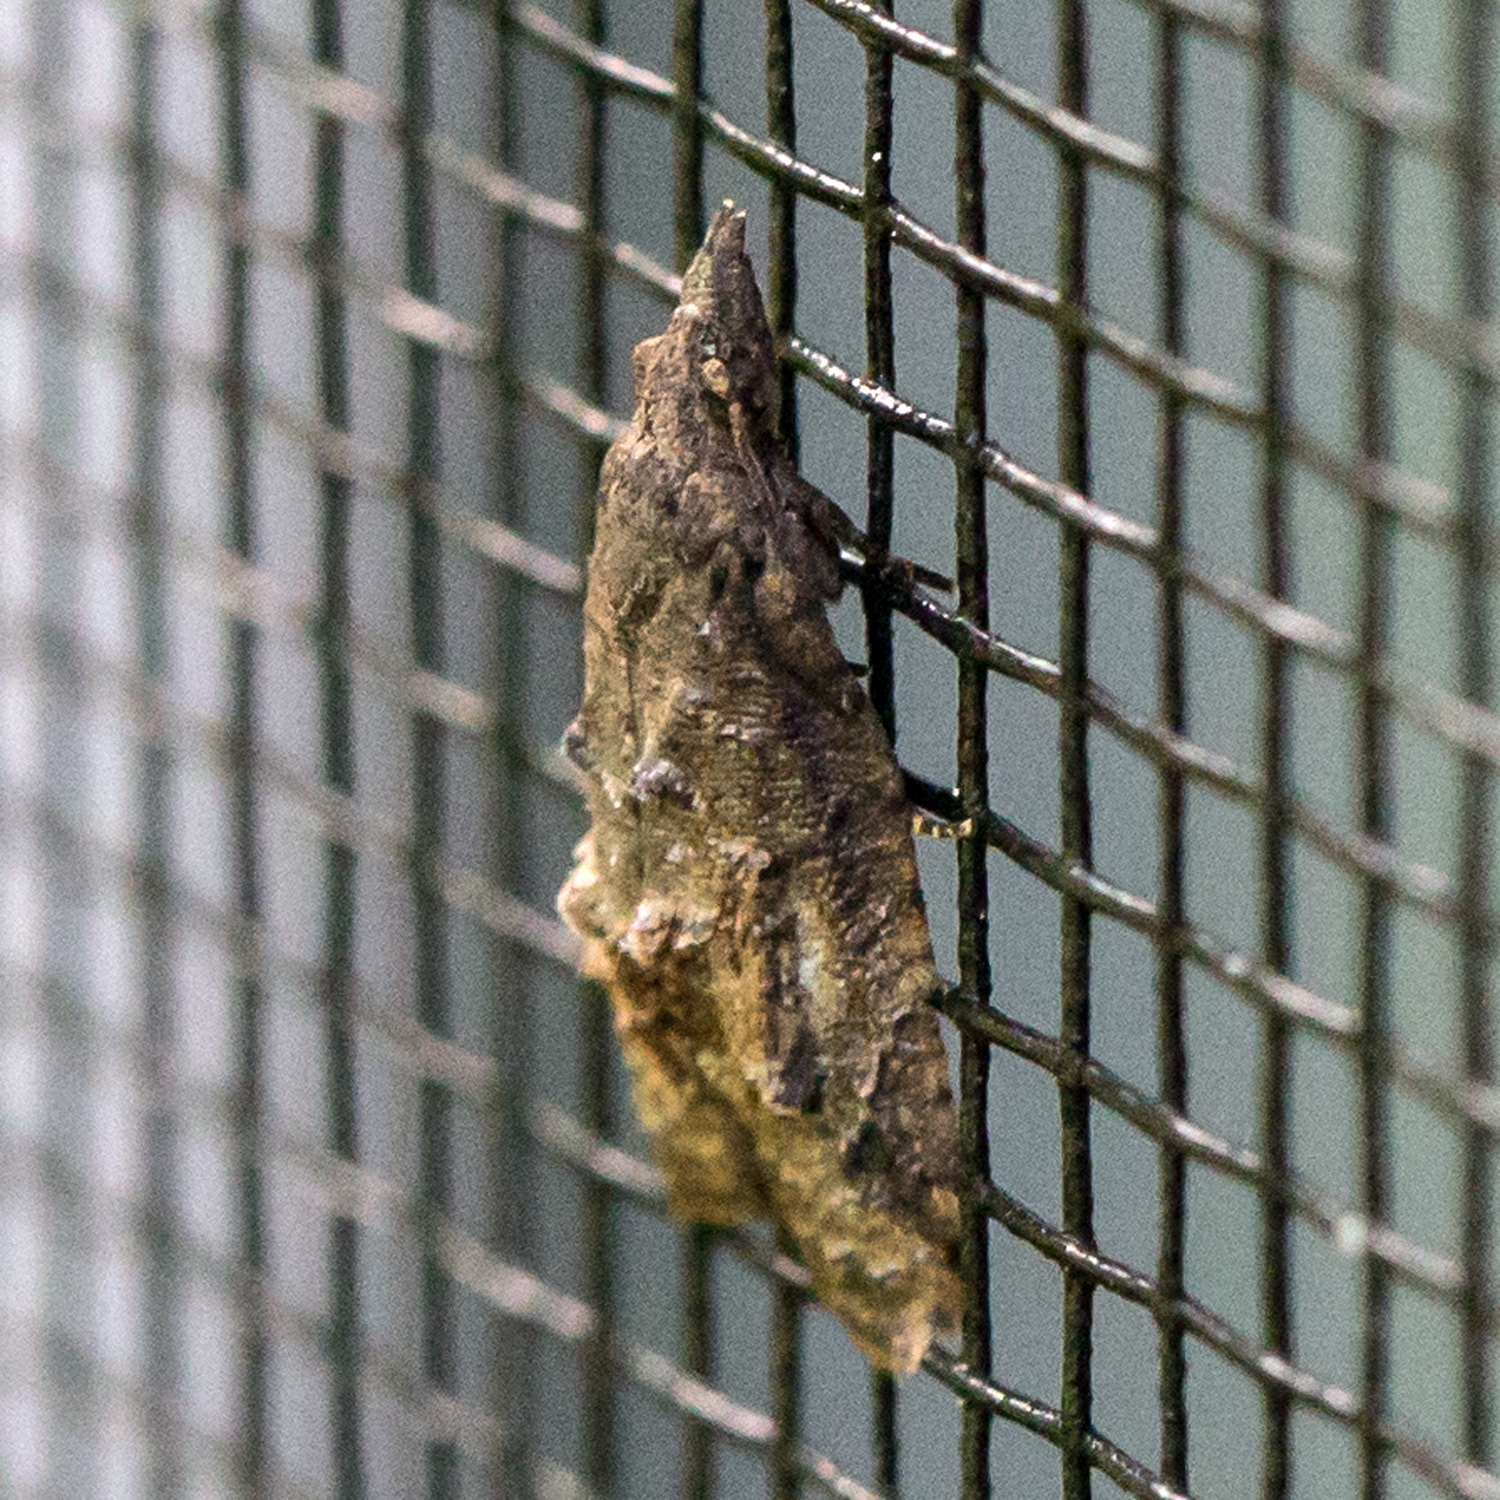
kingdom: Animalia
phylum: Arthropoda
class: Insecta
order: Lepidoptera
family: Tortricidae
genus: Platynota
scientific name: Platynota idaeusalis
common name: Tufted apple bud moth
